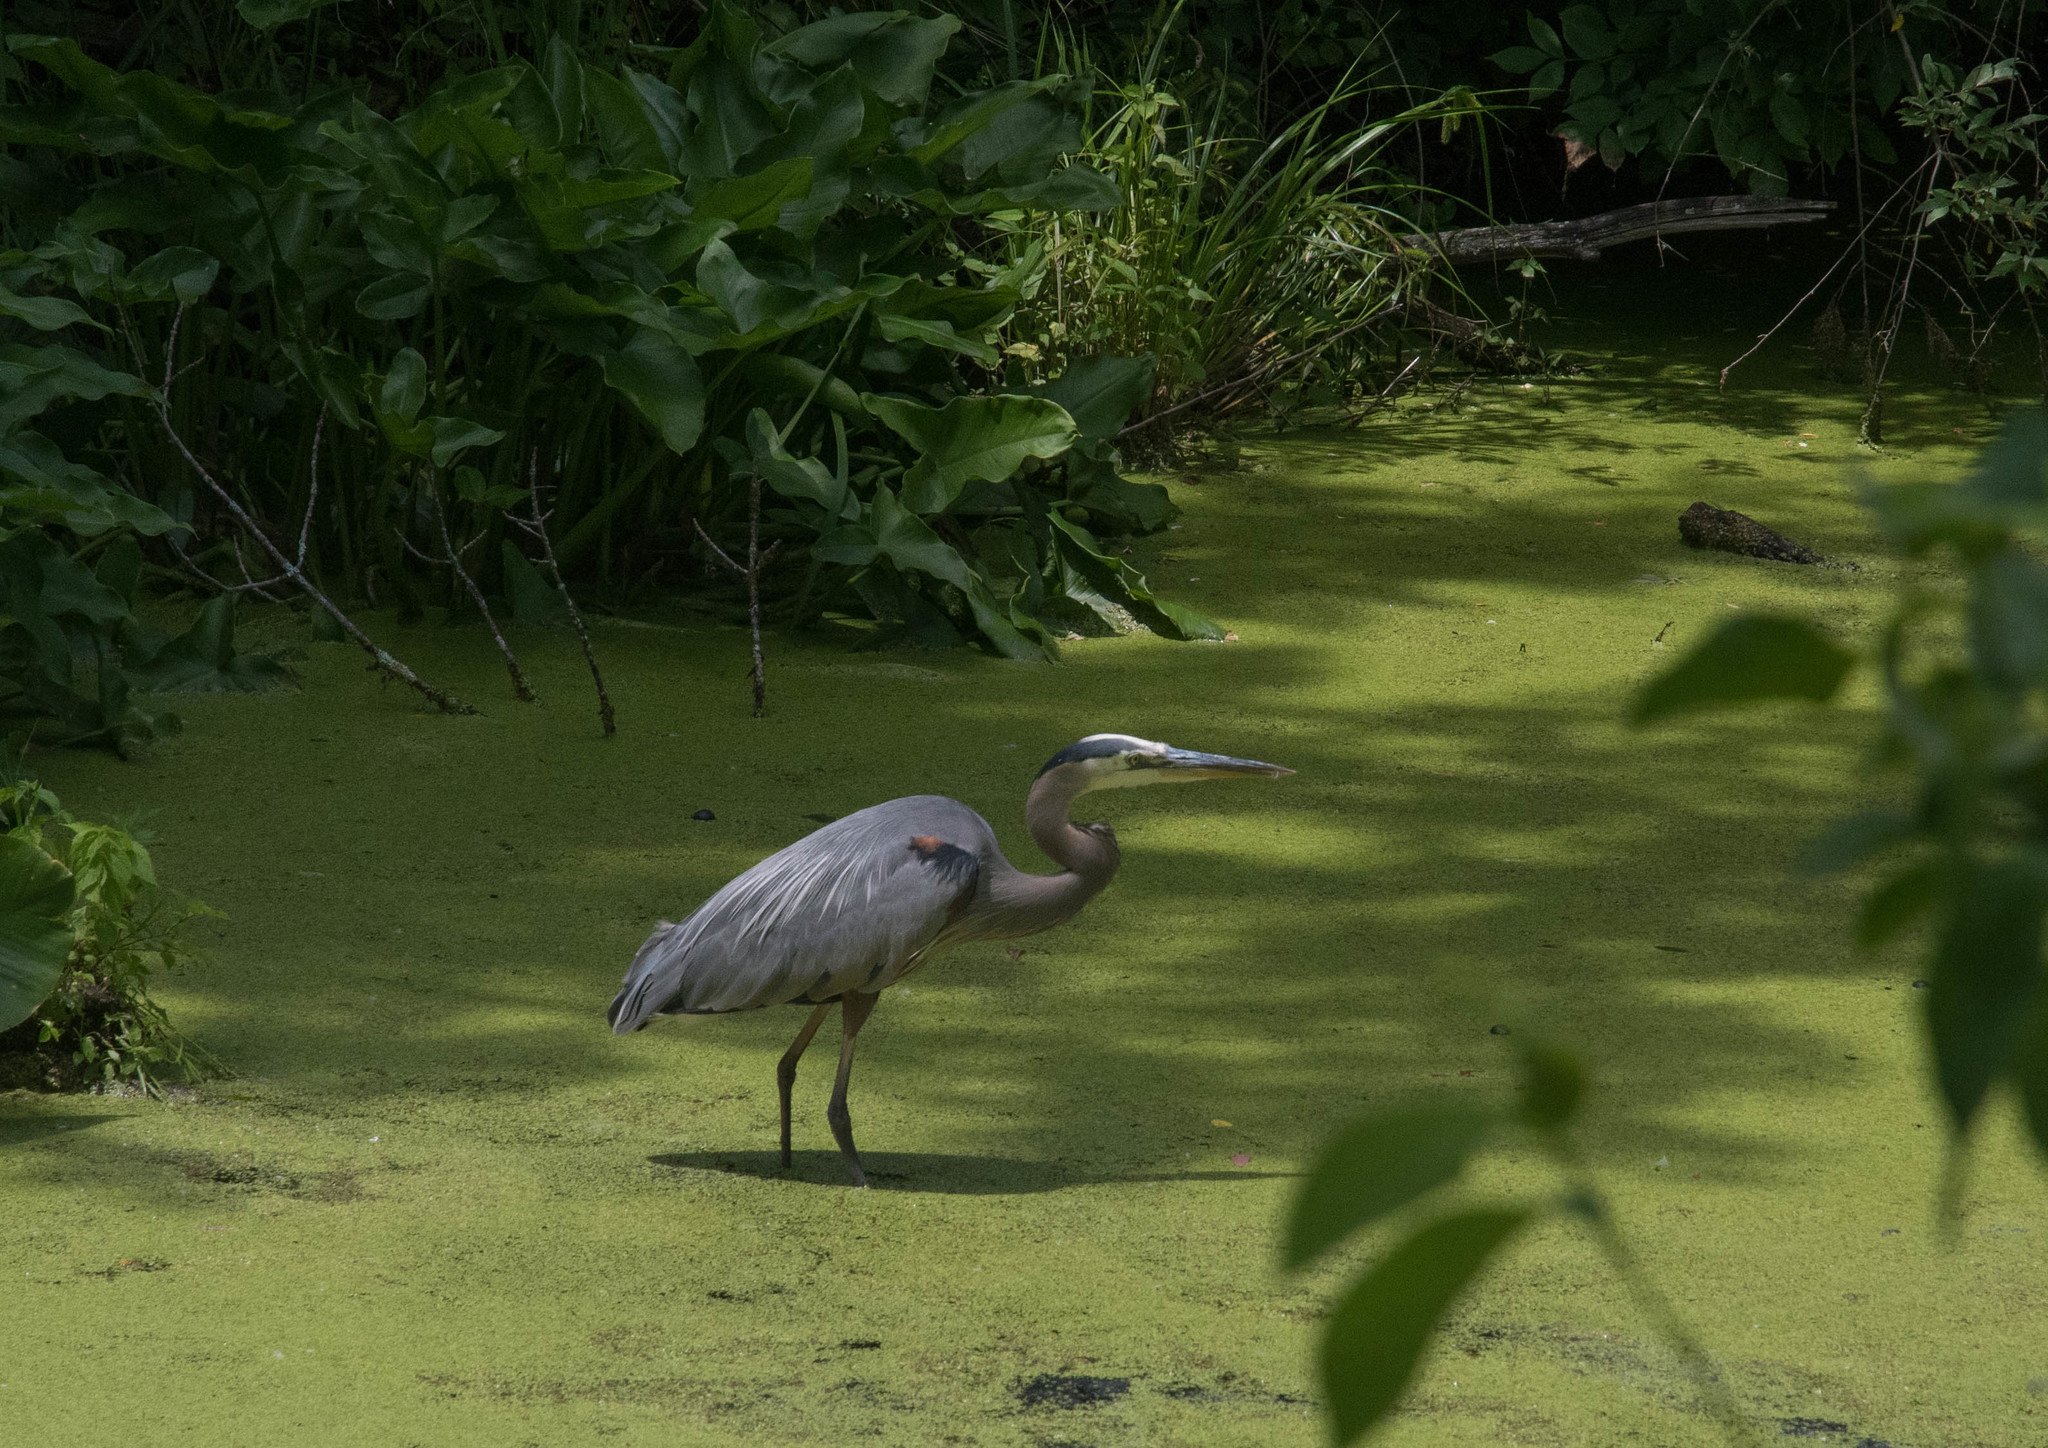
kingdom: Animalia
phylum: Chordata
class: Aves
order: Pelecaniformes
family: Ardeidae
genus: Ardea
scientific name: Ardea herodias
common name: Great blue heron
